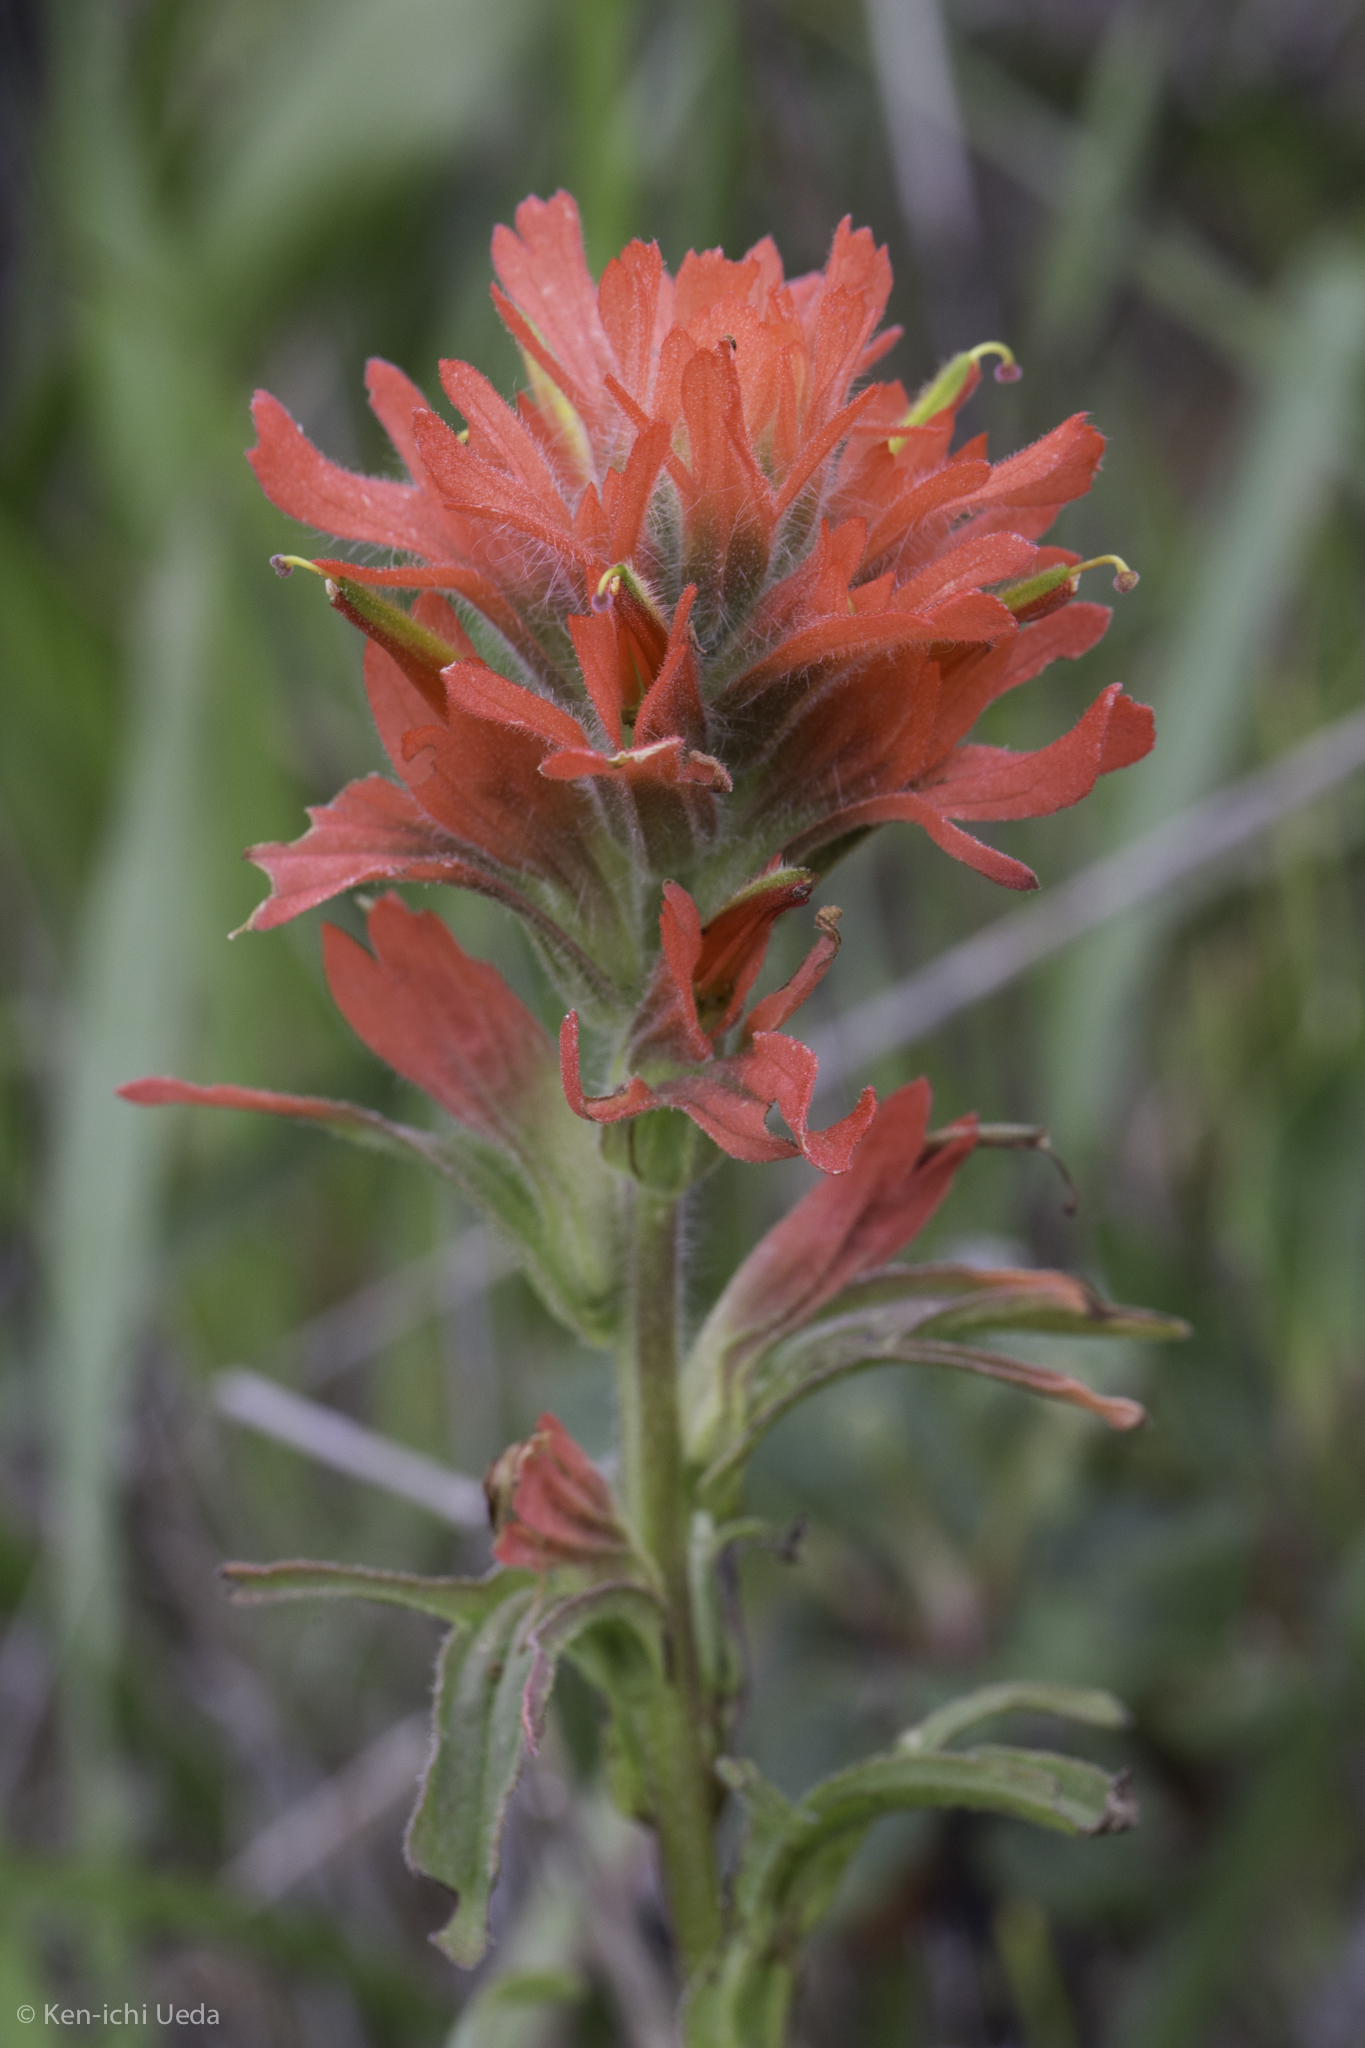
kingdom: Plantae
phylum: Tracheophyta
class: Magnoliopsida
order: Lamiales
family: Orobanchaceae
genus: Castilleja
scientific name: Castilleja affinis
